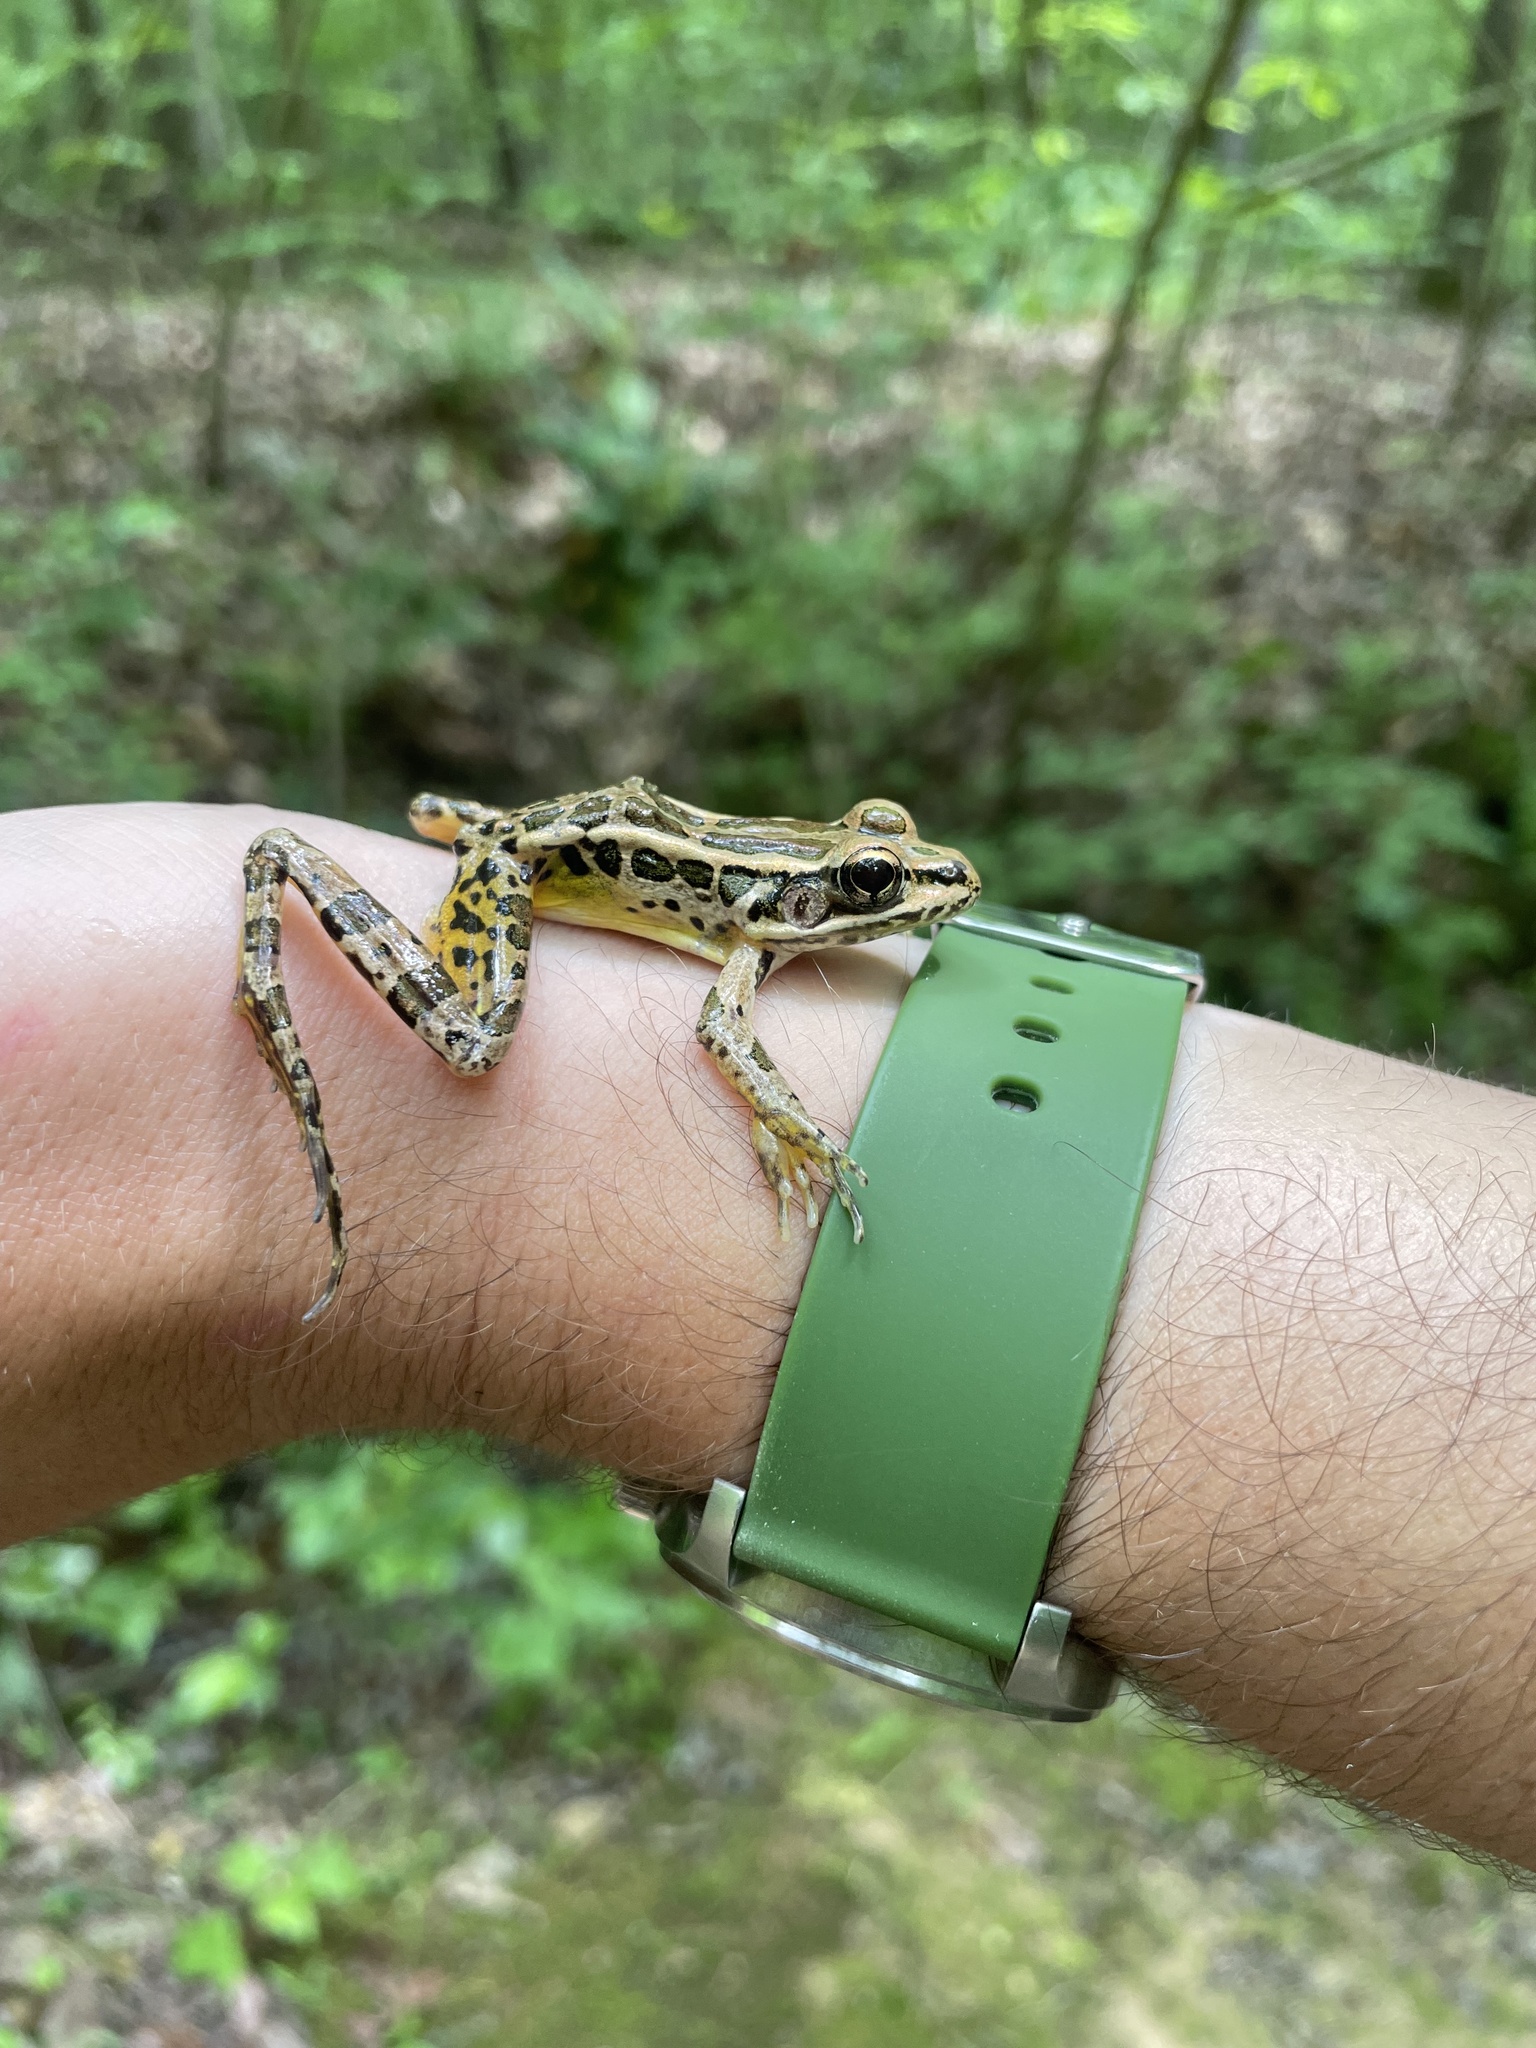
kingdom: Animalia
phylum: Chordata
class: Amphibia
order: Anura
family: Ranidae
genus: Lithobates
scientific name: Lithobates palustris
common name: Pickerel frog
